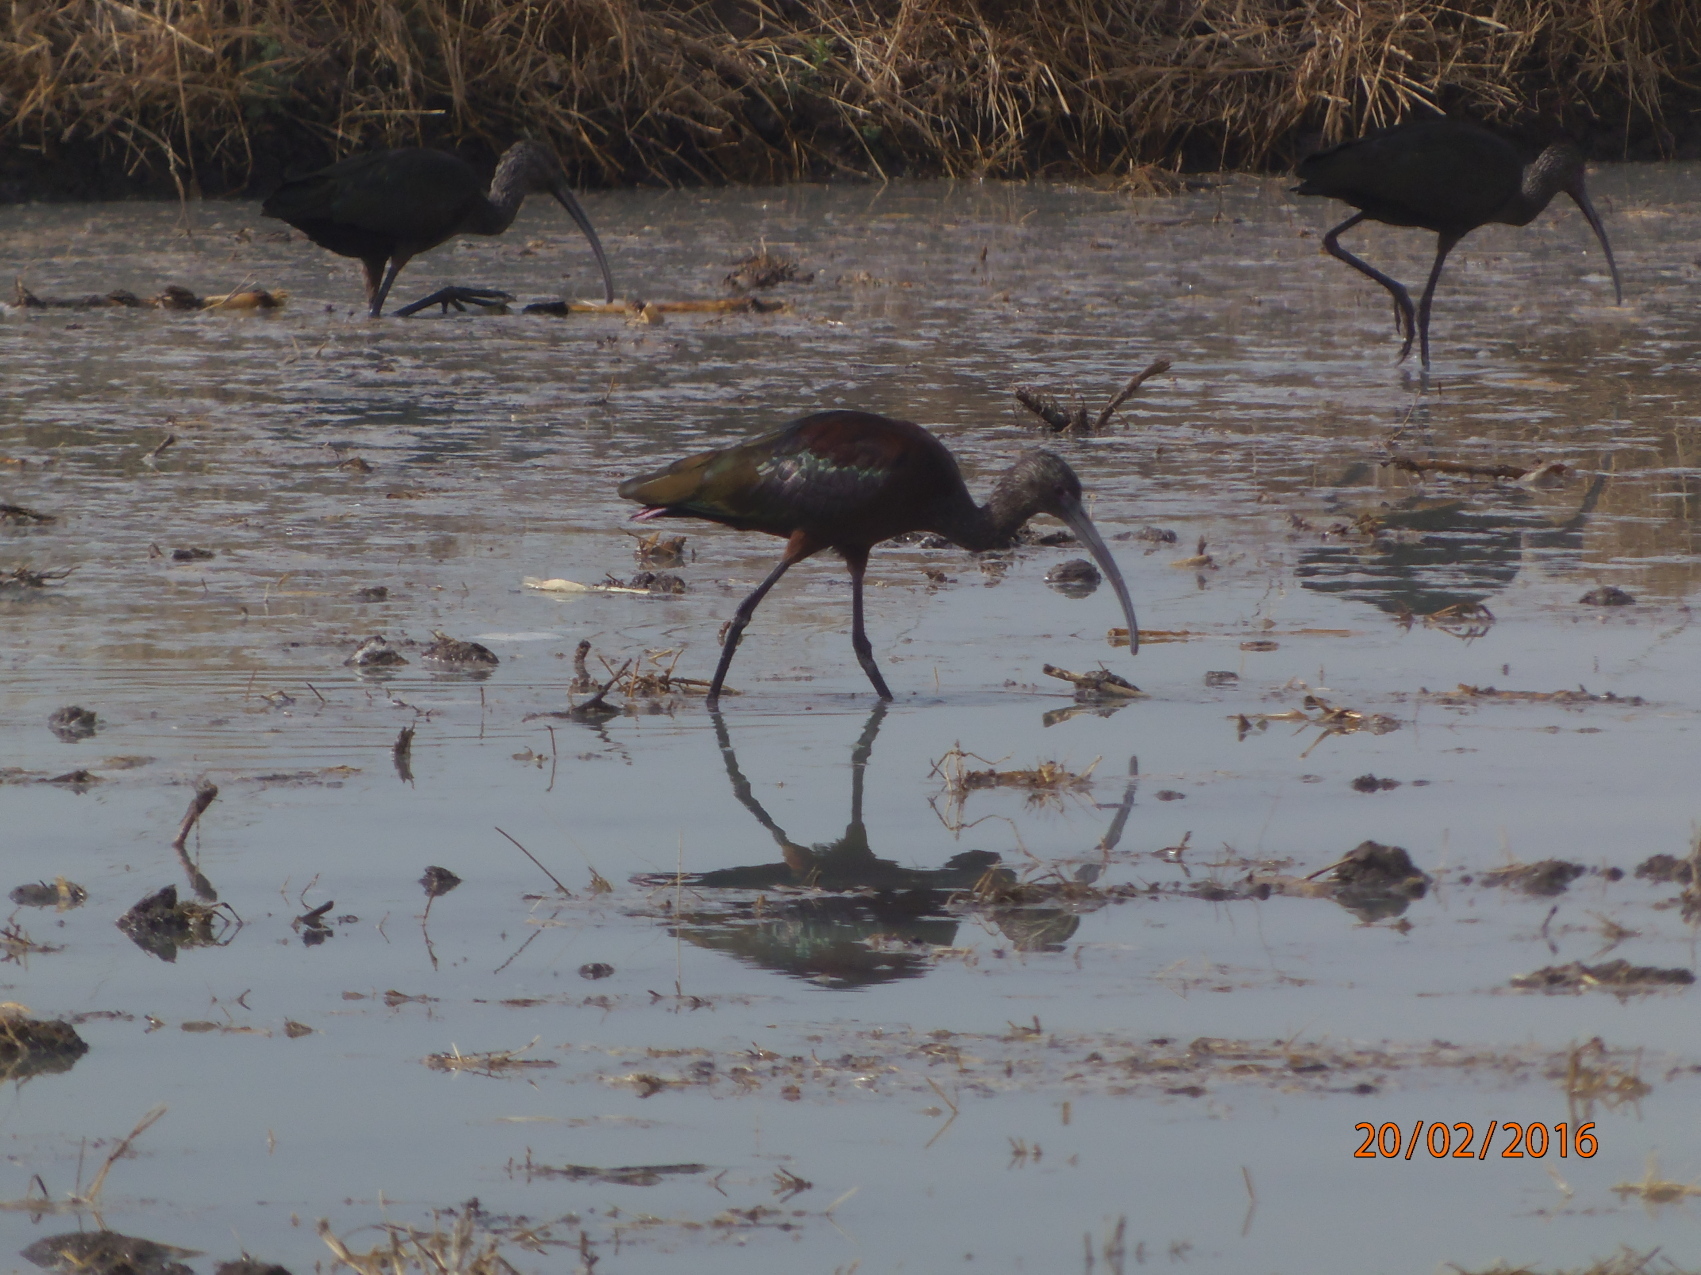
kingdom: Animalia
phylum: Chordata
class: Aves
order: Pelecaniformes
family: Threskiornithidae
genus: Plegadis
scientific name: Plegadis chihi
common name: White-faced ibis
